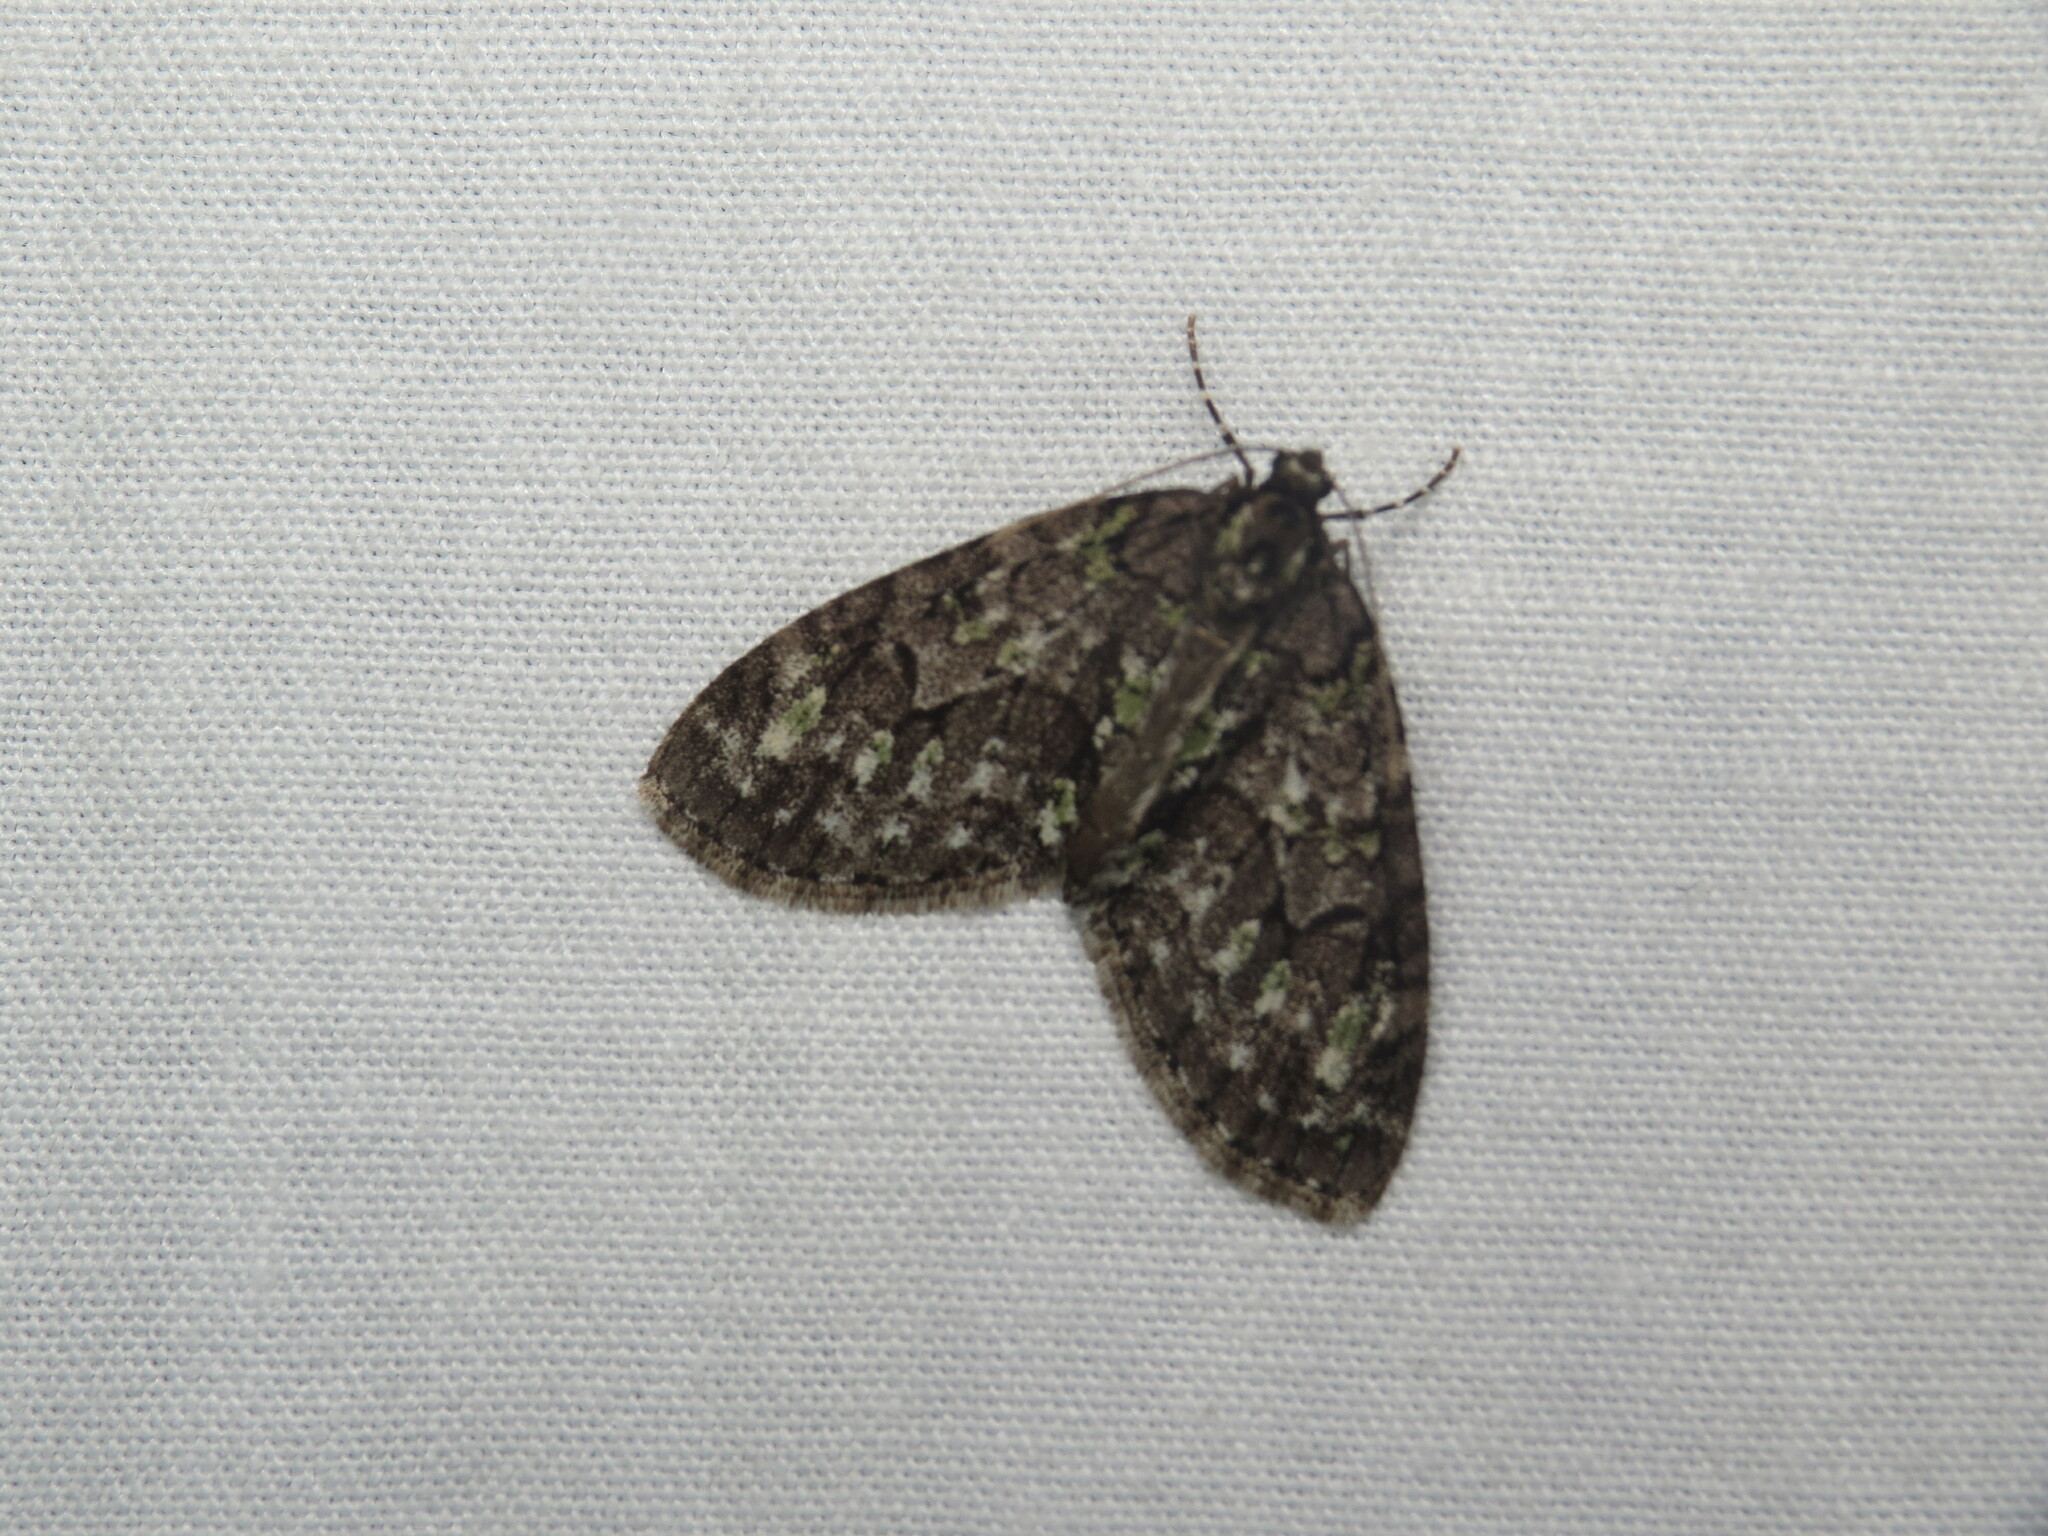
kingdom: Animalia
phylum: Arthropoda
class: Insecta
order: Lepidoptera
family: Geometridae
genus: Cladara
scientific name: Cladara limitaria
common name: Mottled gray carpet
